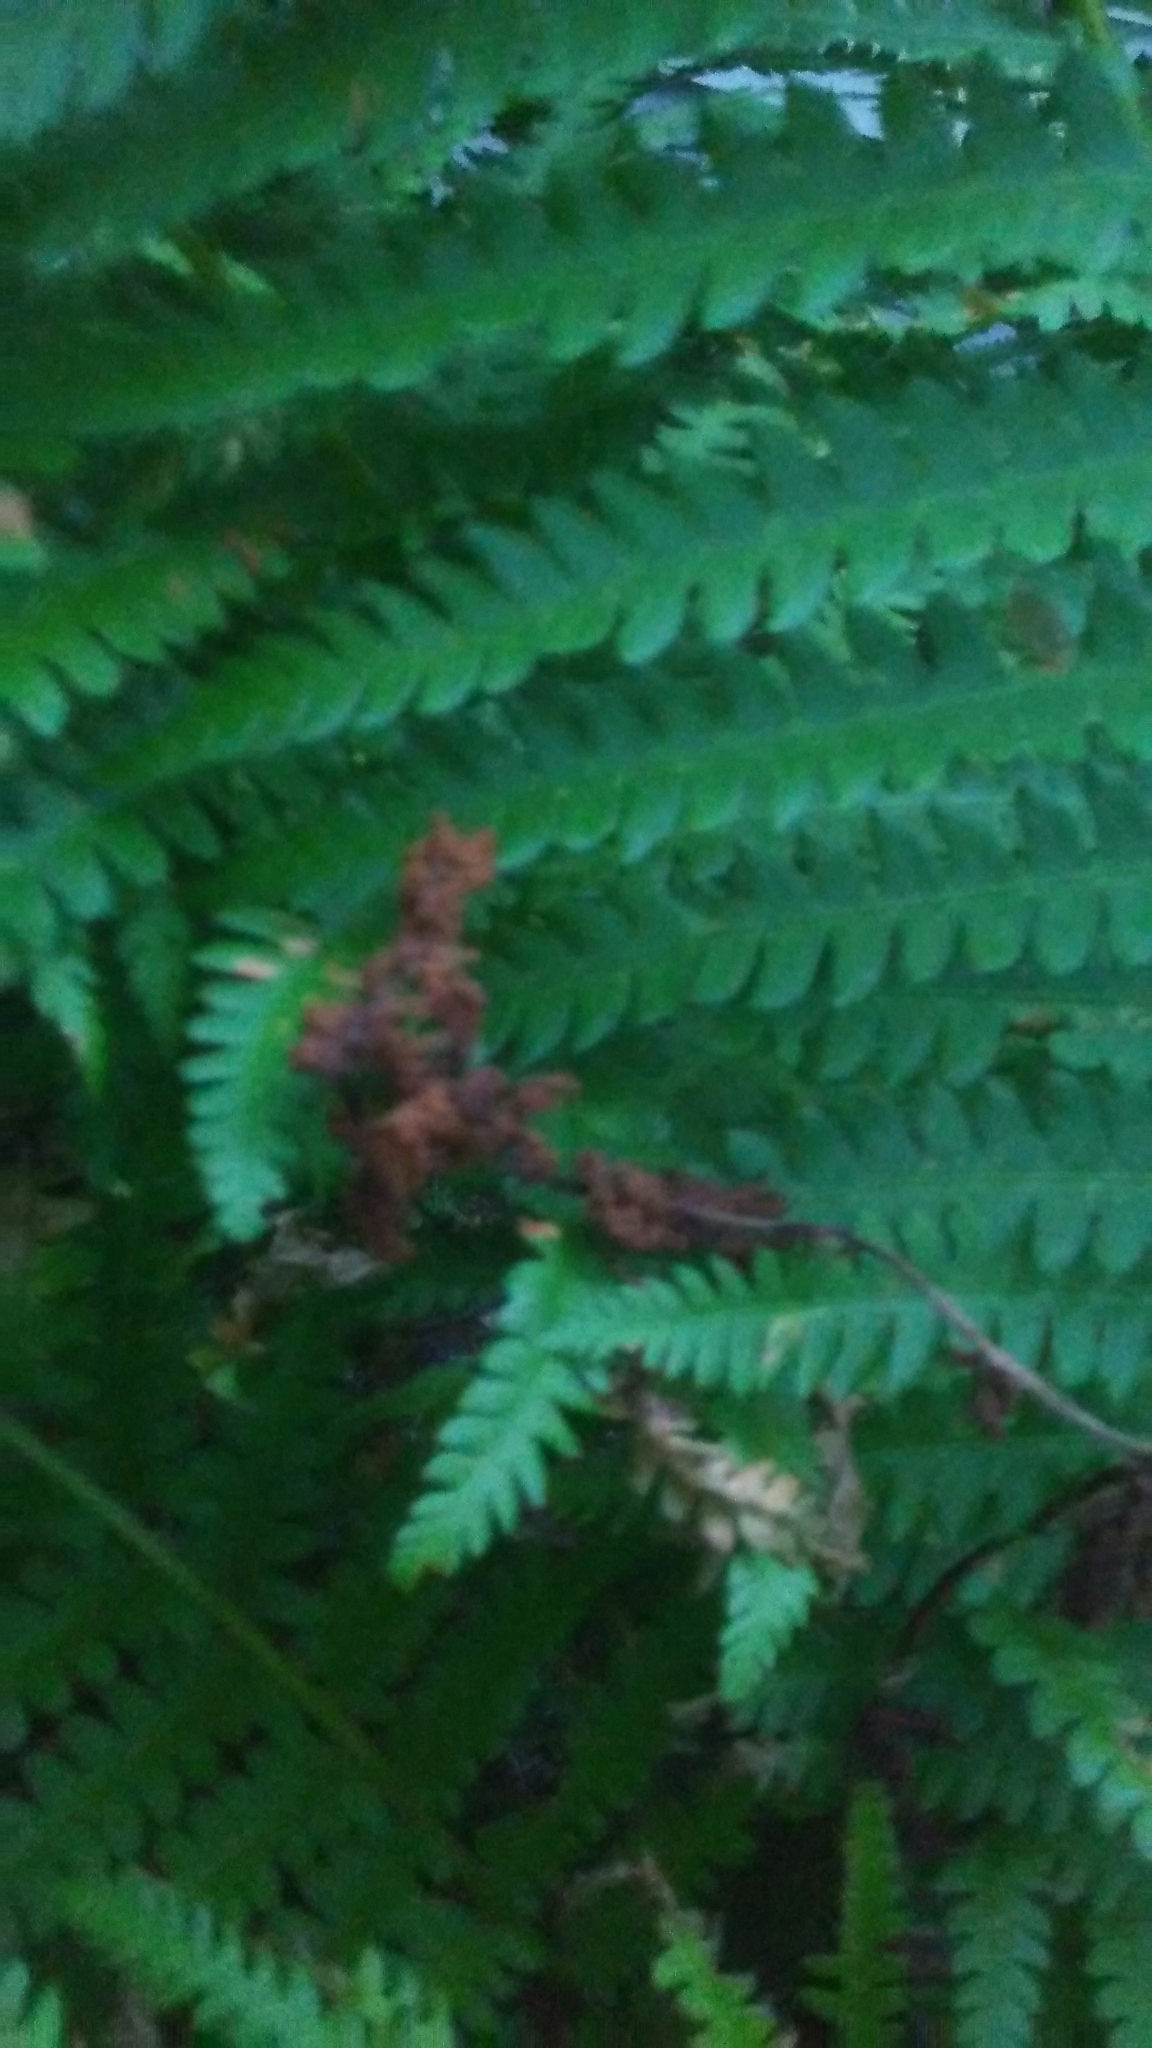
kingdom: Plantae
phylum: Tracheophyta
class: Polypodiopsida
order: Osmundales
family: Osmundaceae
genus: Osmundastrum
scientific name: Osmundastrum cinnamomeum
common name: Cinnamon fern
